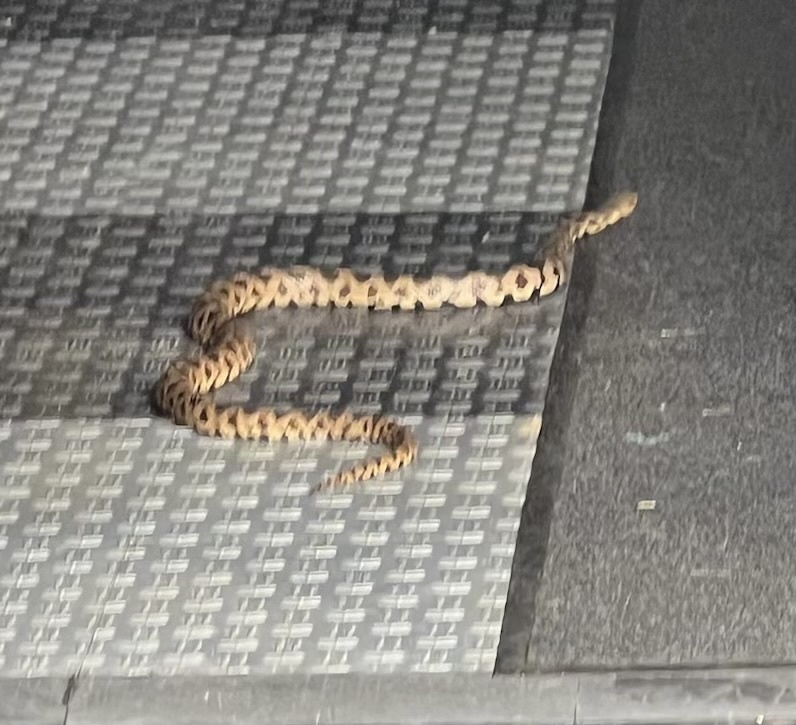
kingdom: Animalia
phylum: Chordata
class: Squamata
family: Colubridae
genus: Pantherophis
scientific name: Pantherophis ramspotti
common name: Western foxsnake
